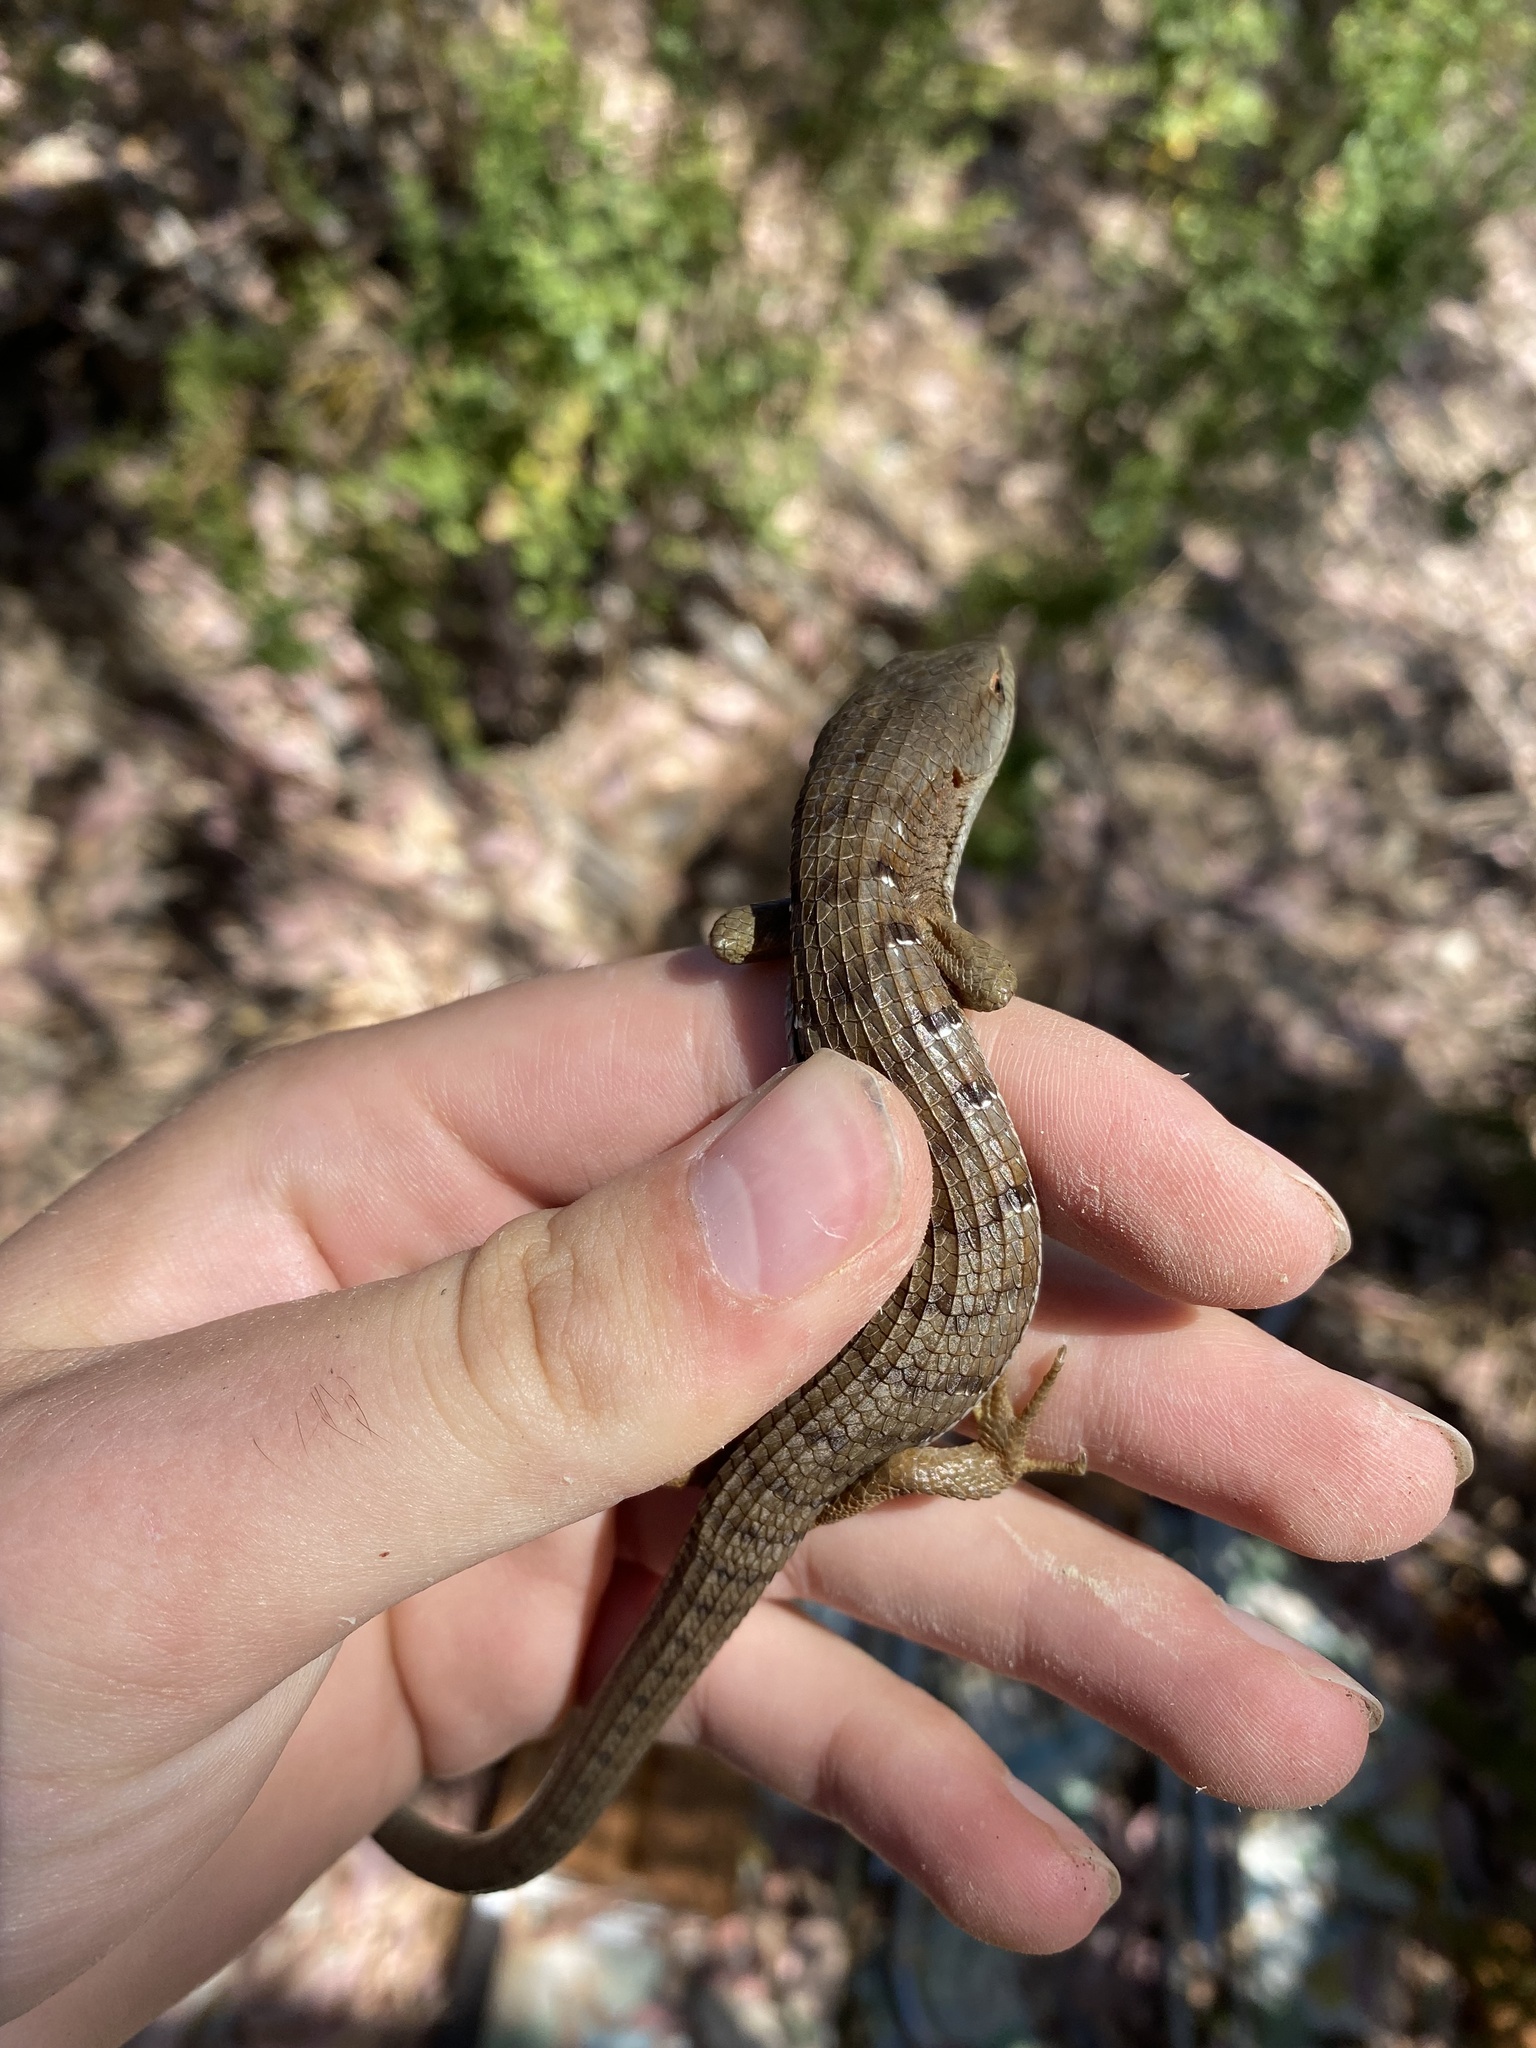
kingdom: Animalia
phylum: Chordata
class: Squamata
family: Anguidae
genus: Elgaria
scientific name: Elgaria multicarinata
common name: Southern alligator lizard
